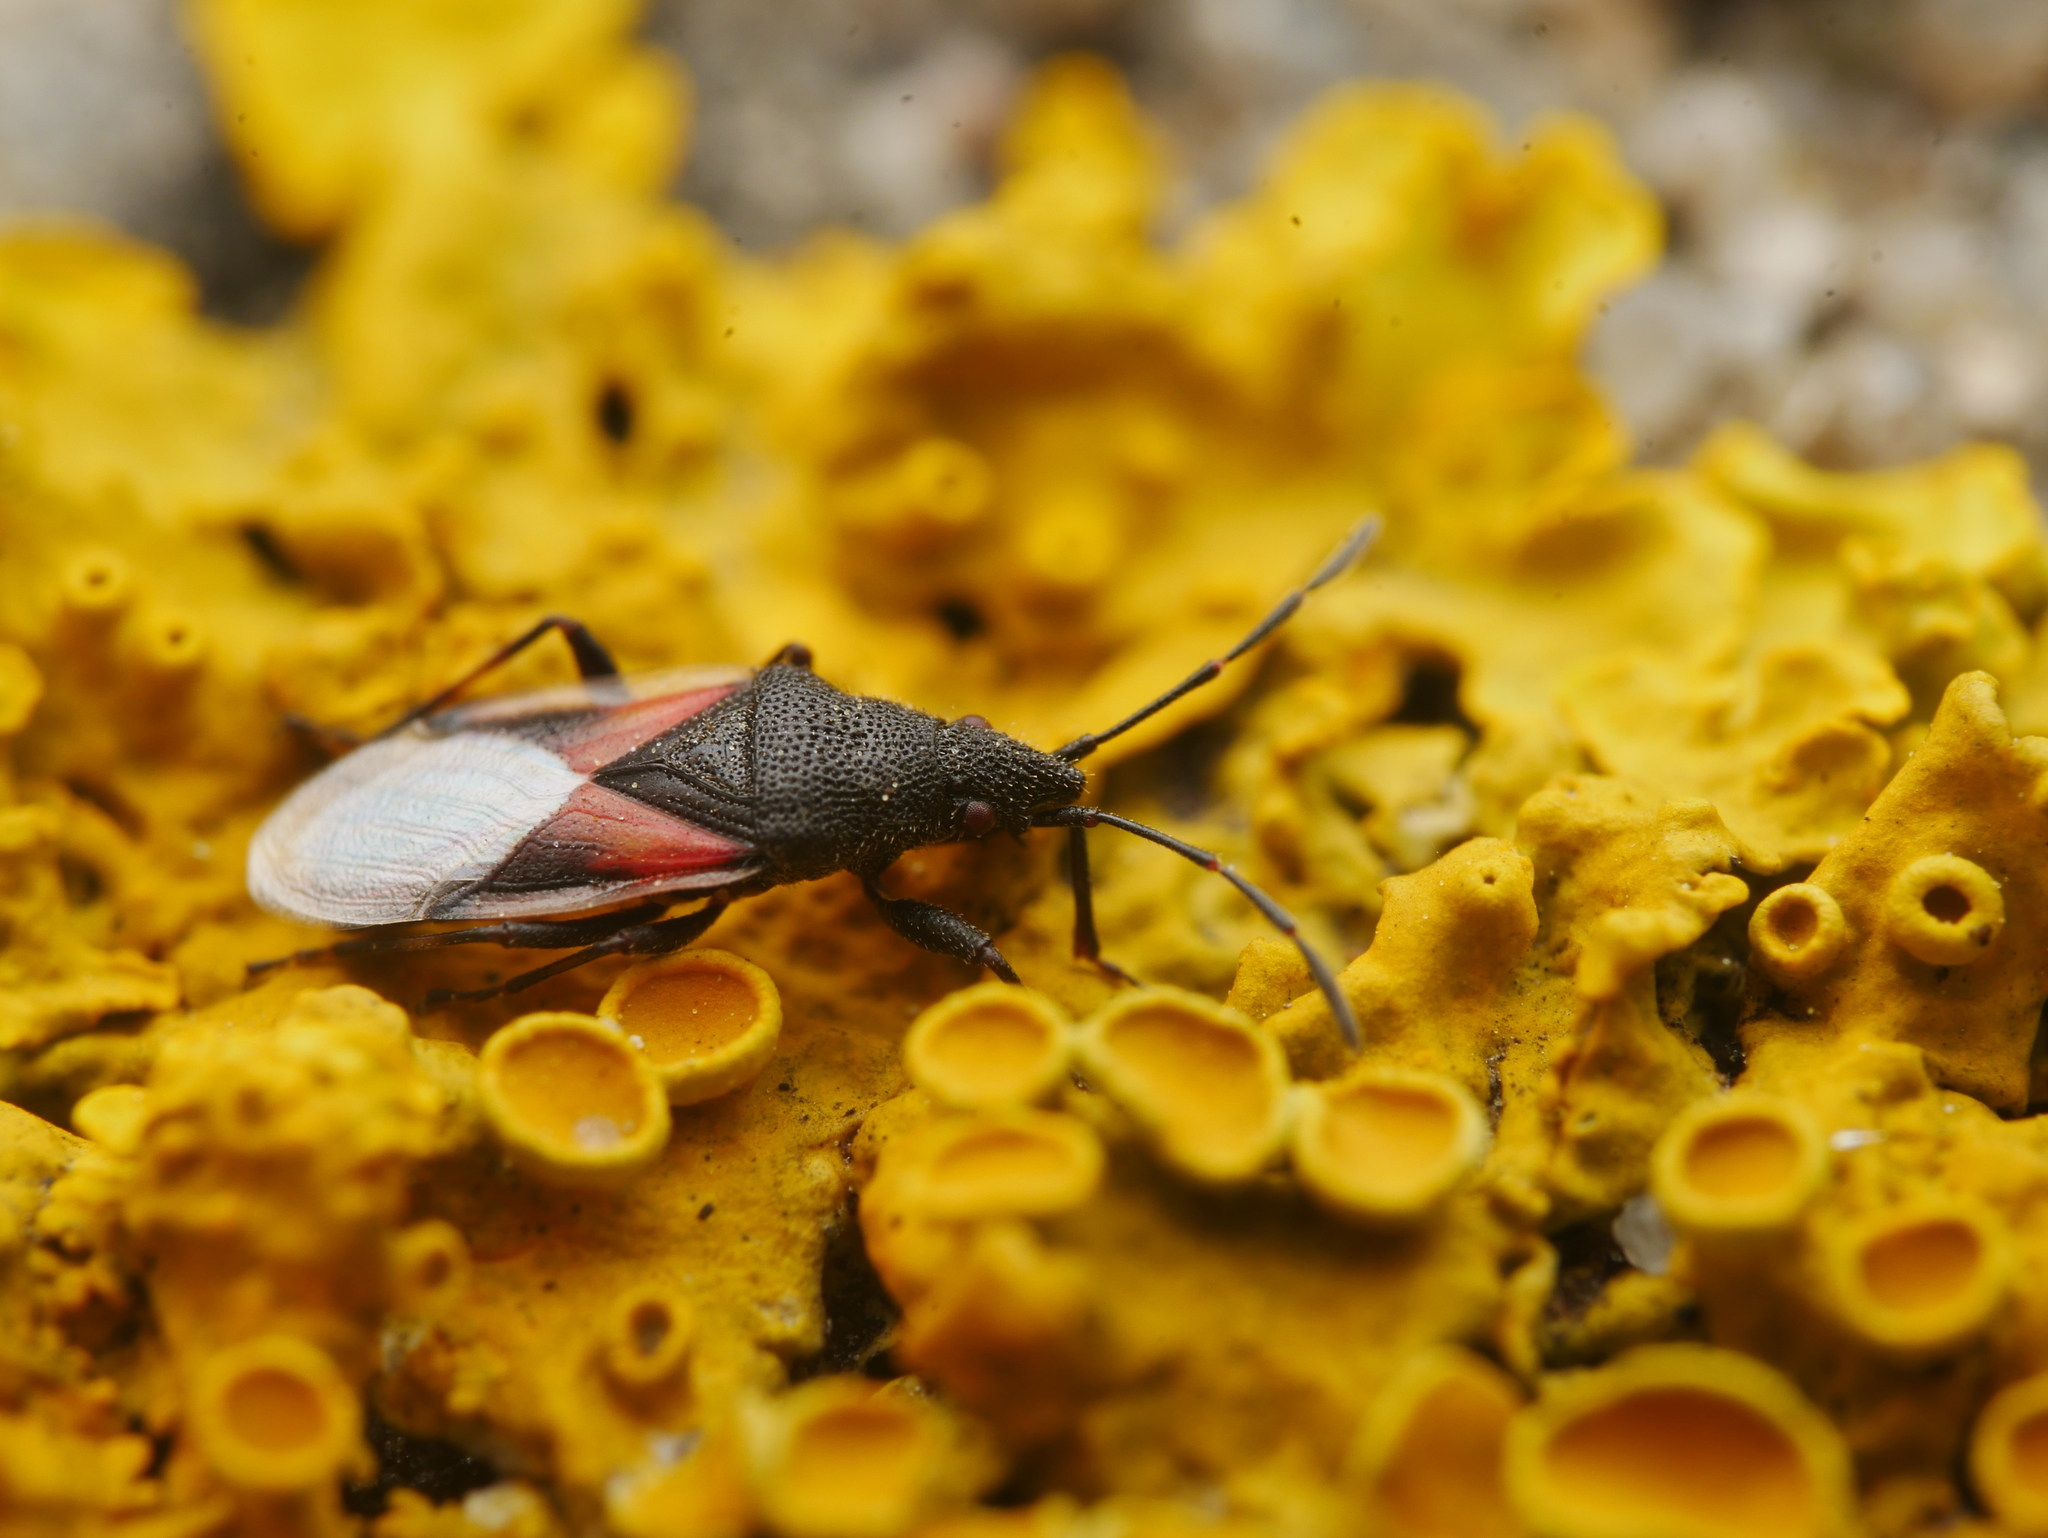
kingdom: Animalia
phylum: Arthropoda
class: Insecta
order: Hemiptera
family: Oxycarenidae
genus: Oxycarenus
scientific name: Oxycarenus lavaterae
